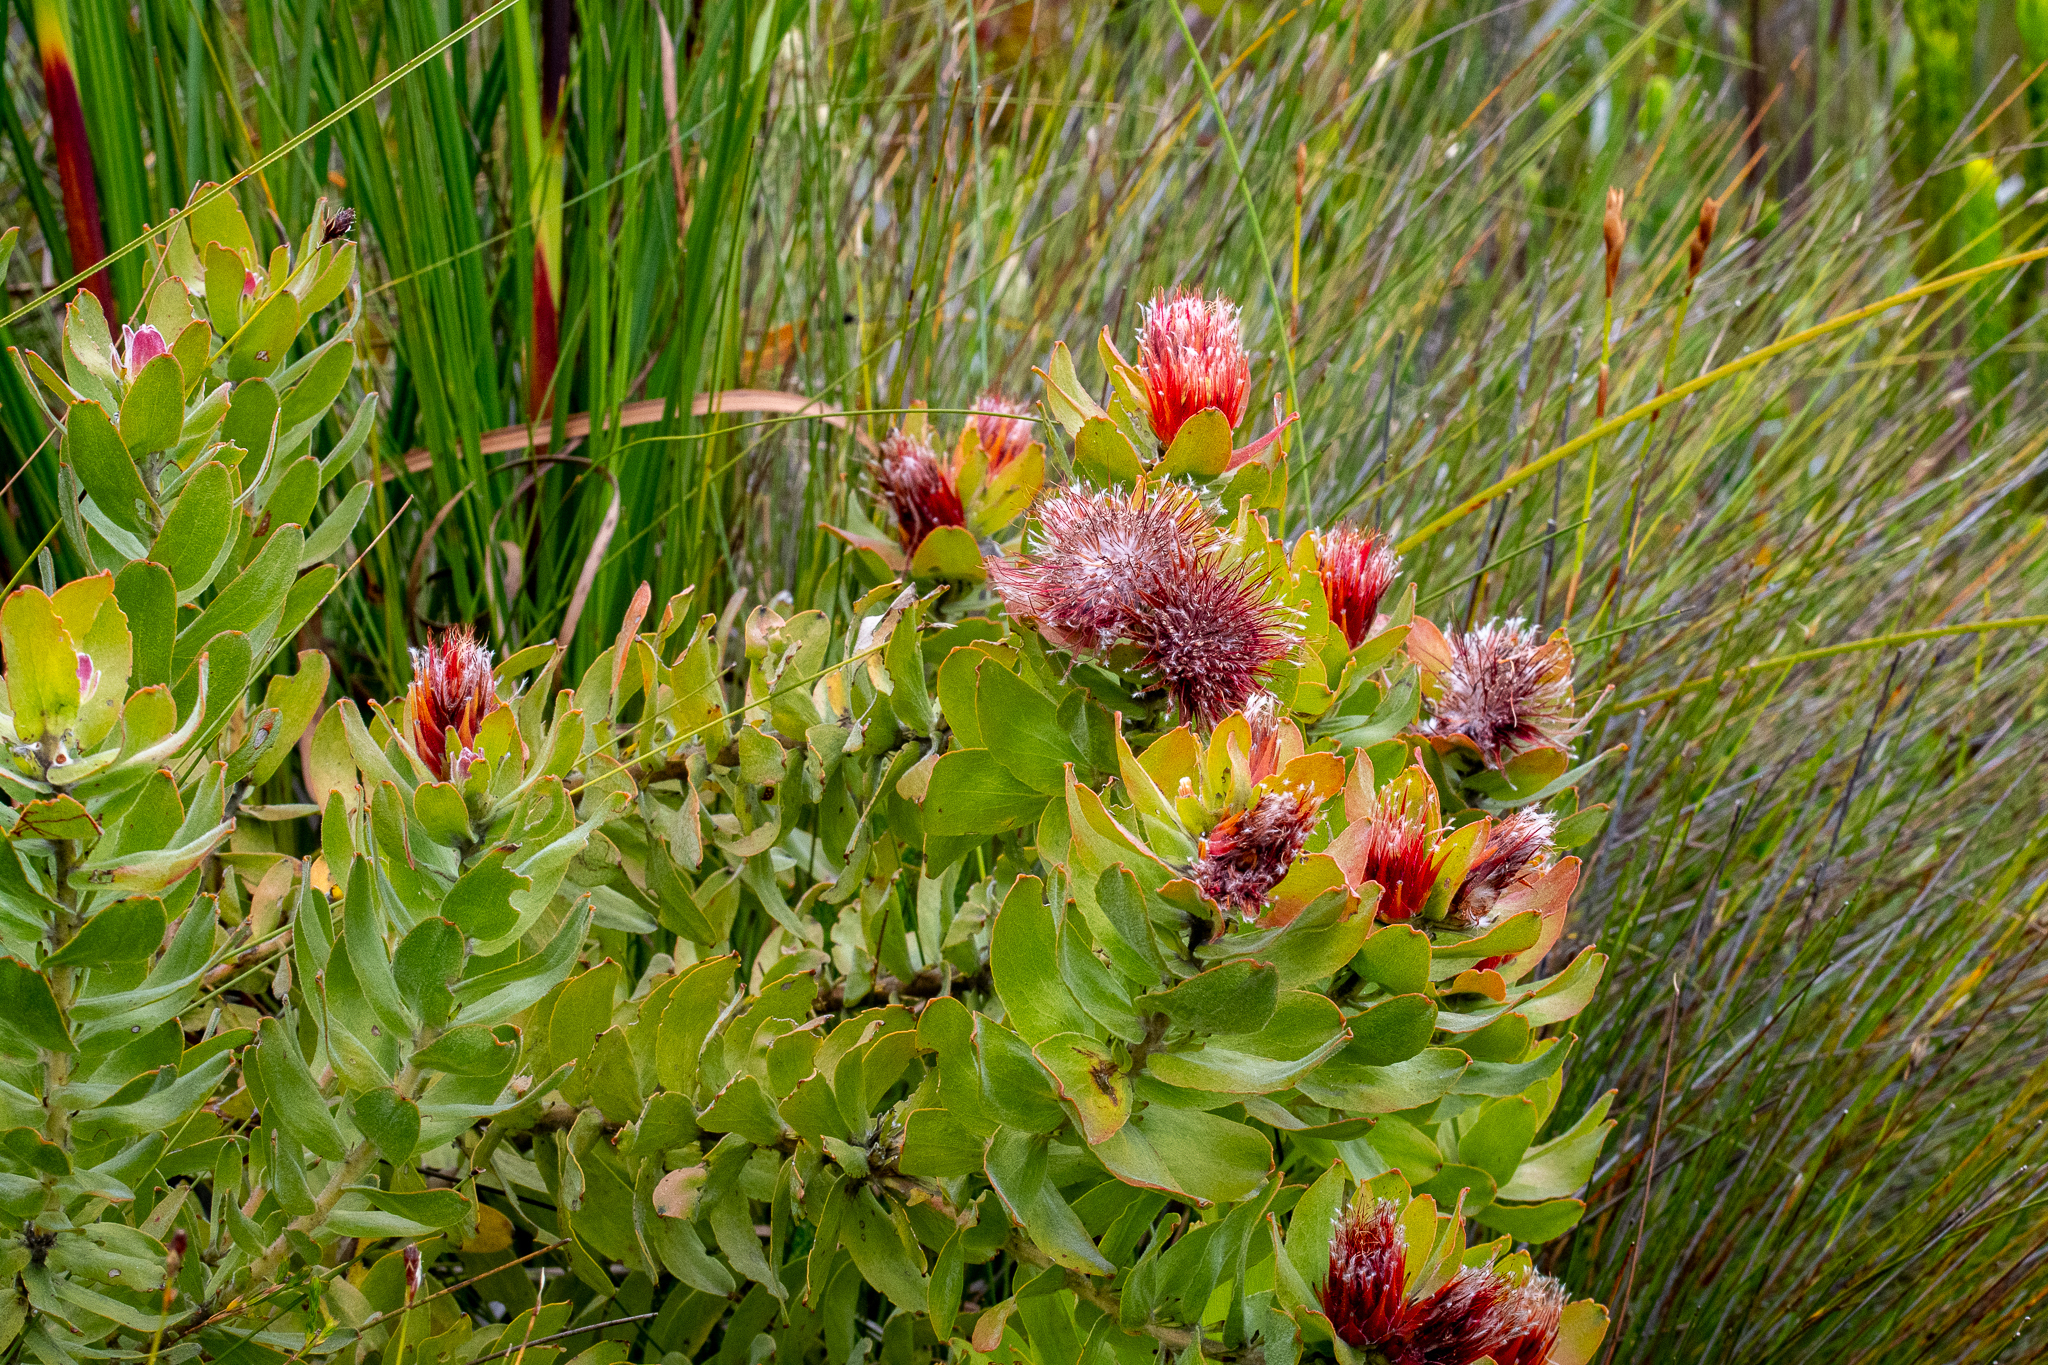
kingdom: Plantae
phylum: Tracheophyta
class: Magnoliopsida
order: Proteales
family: Proteaceae
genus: Leucospermum
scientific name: Leucospermum oleifolium
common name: Matches
